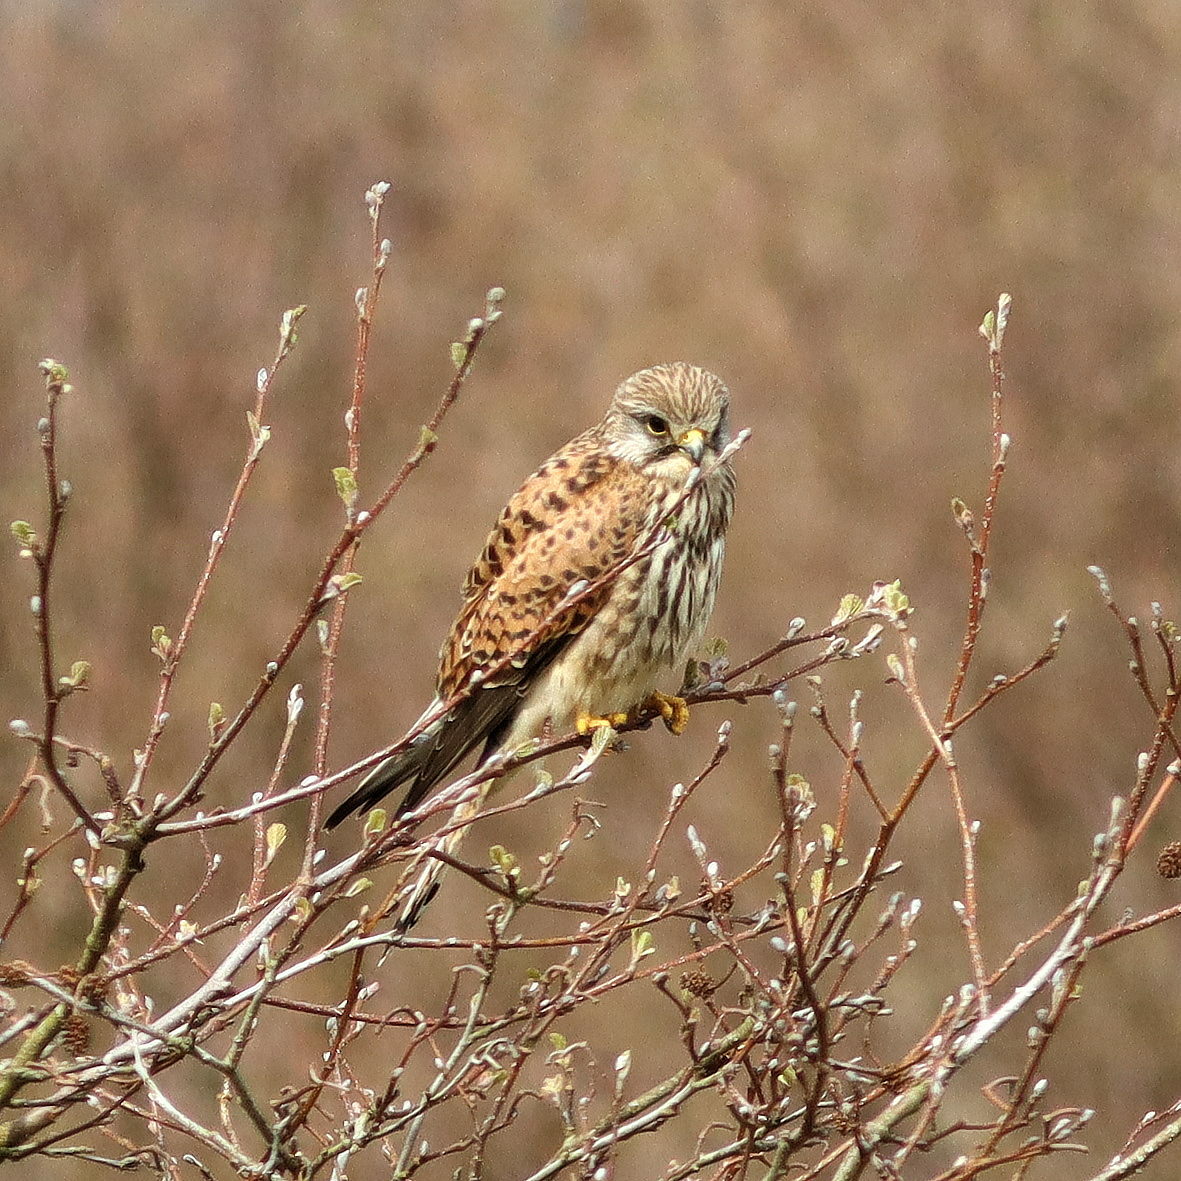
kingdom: Animalia
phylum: Chordata
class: Aves
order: Falconiformes
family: Falconidae
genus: Falco
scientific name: Falco tinnunculus
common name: Common kestrel
